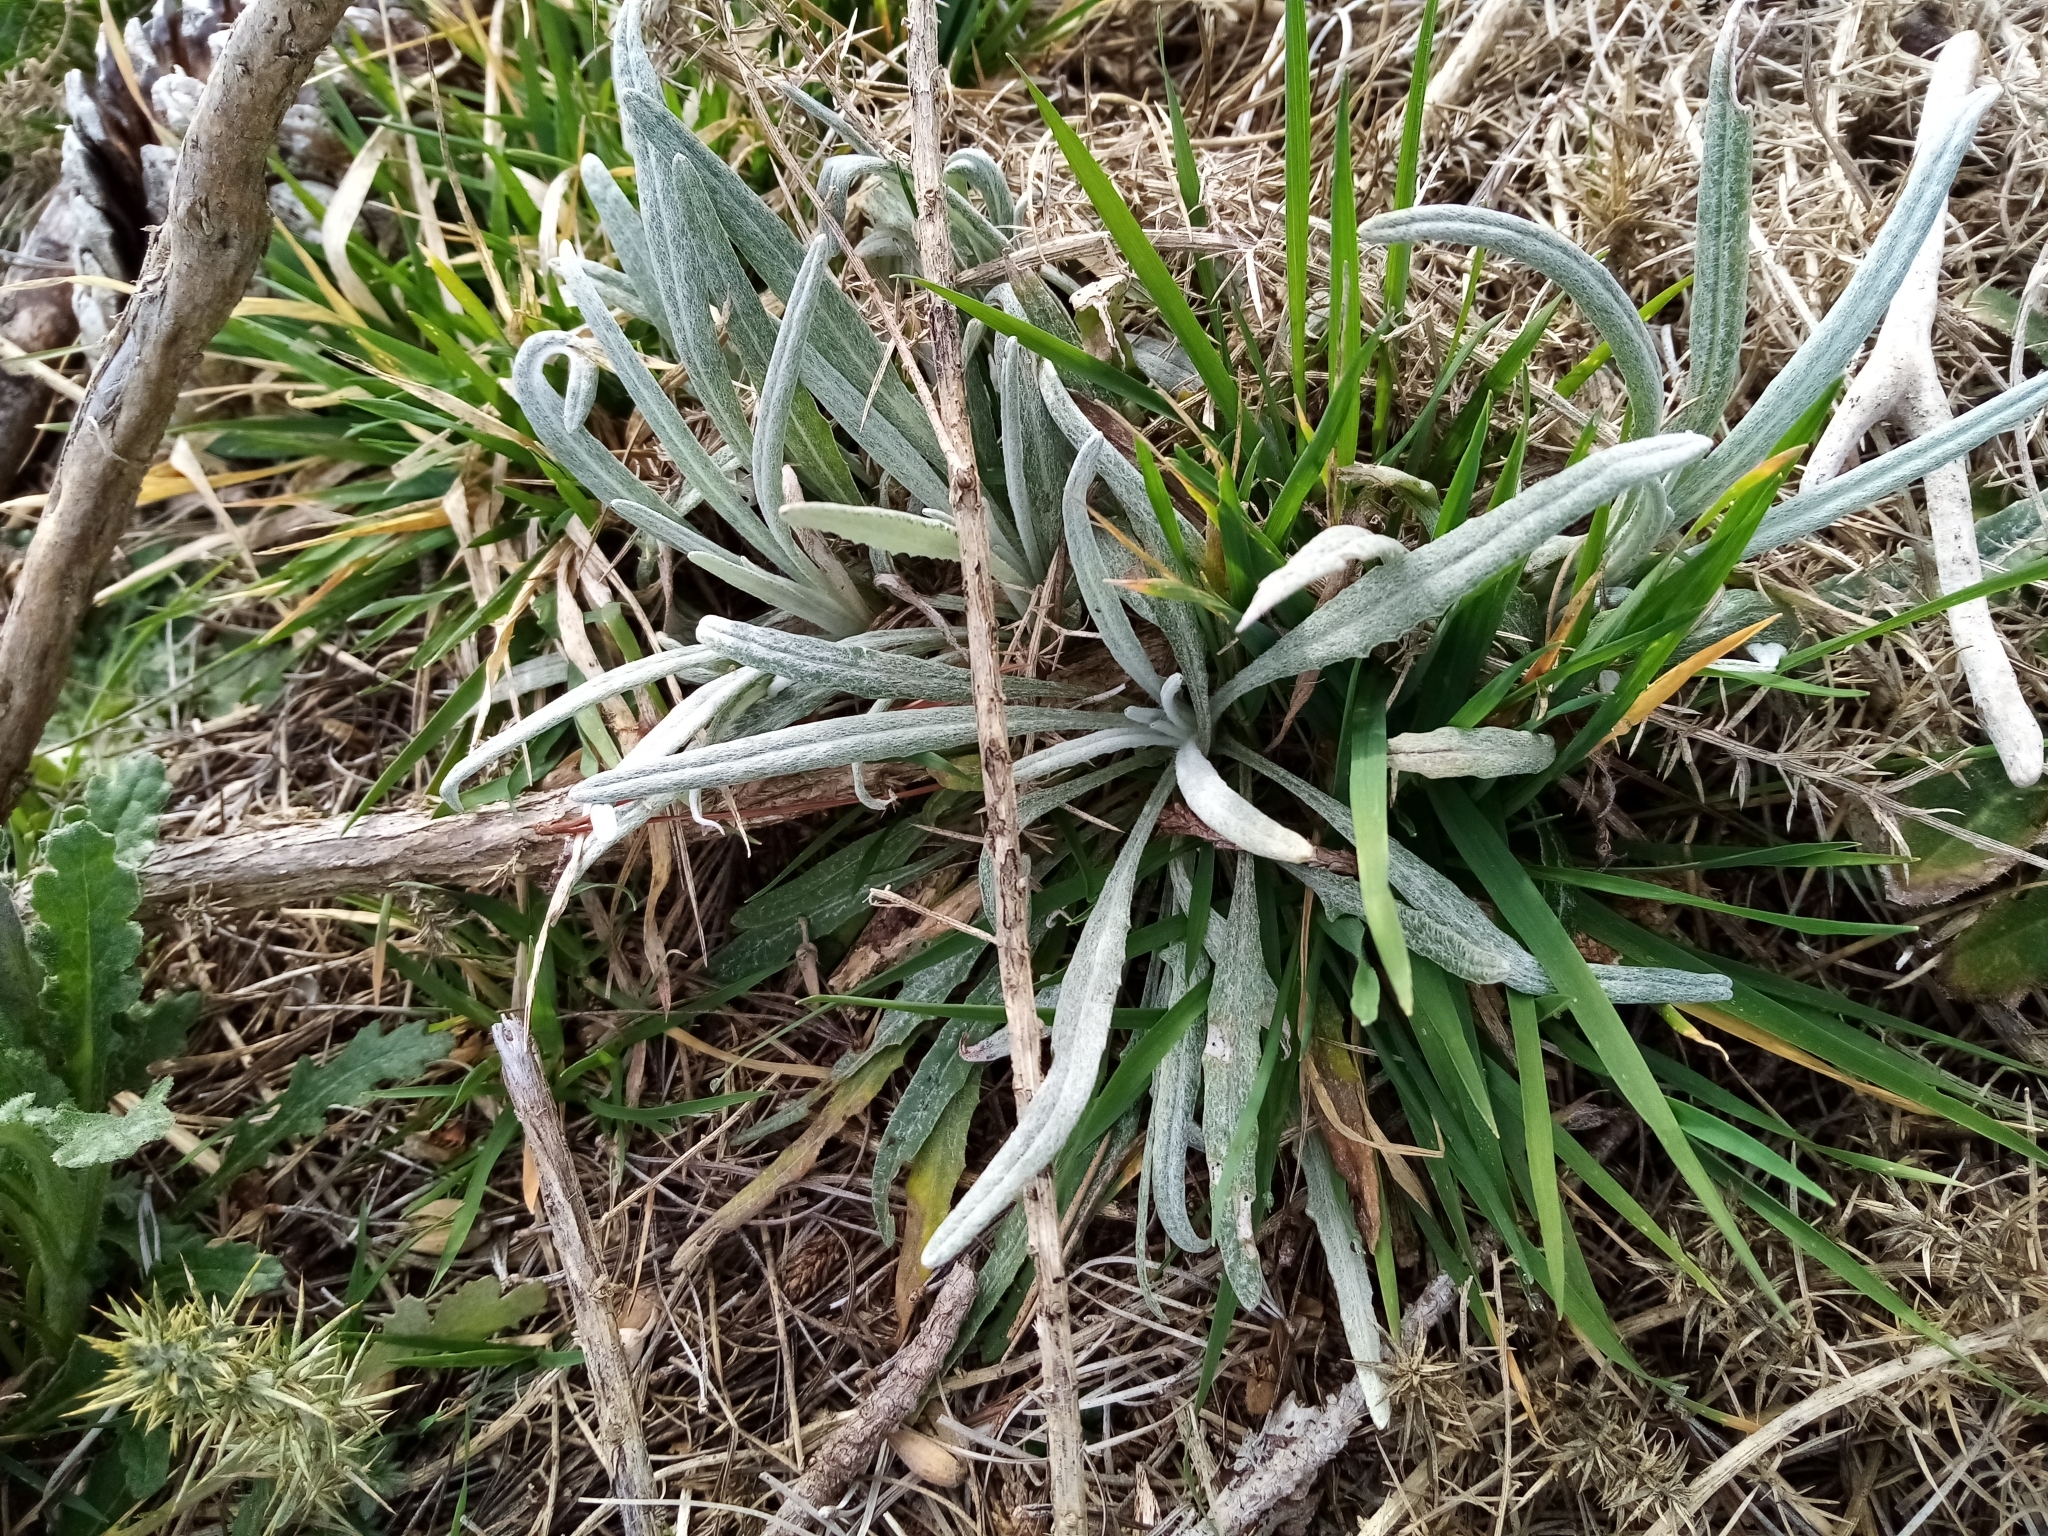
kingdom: Plantae
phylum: Tracheophyta
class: Magnoliopsida
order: Asterales
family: Asteraceae
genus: Senecio
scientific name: Senecio quadridentatus
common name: Cotton fireweed
